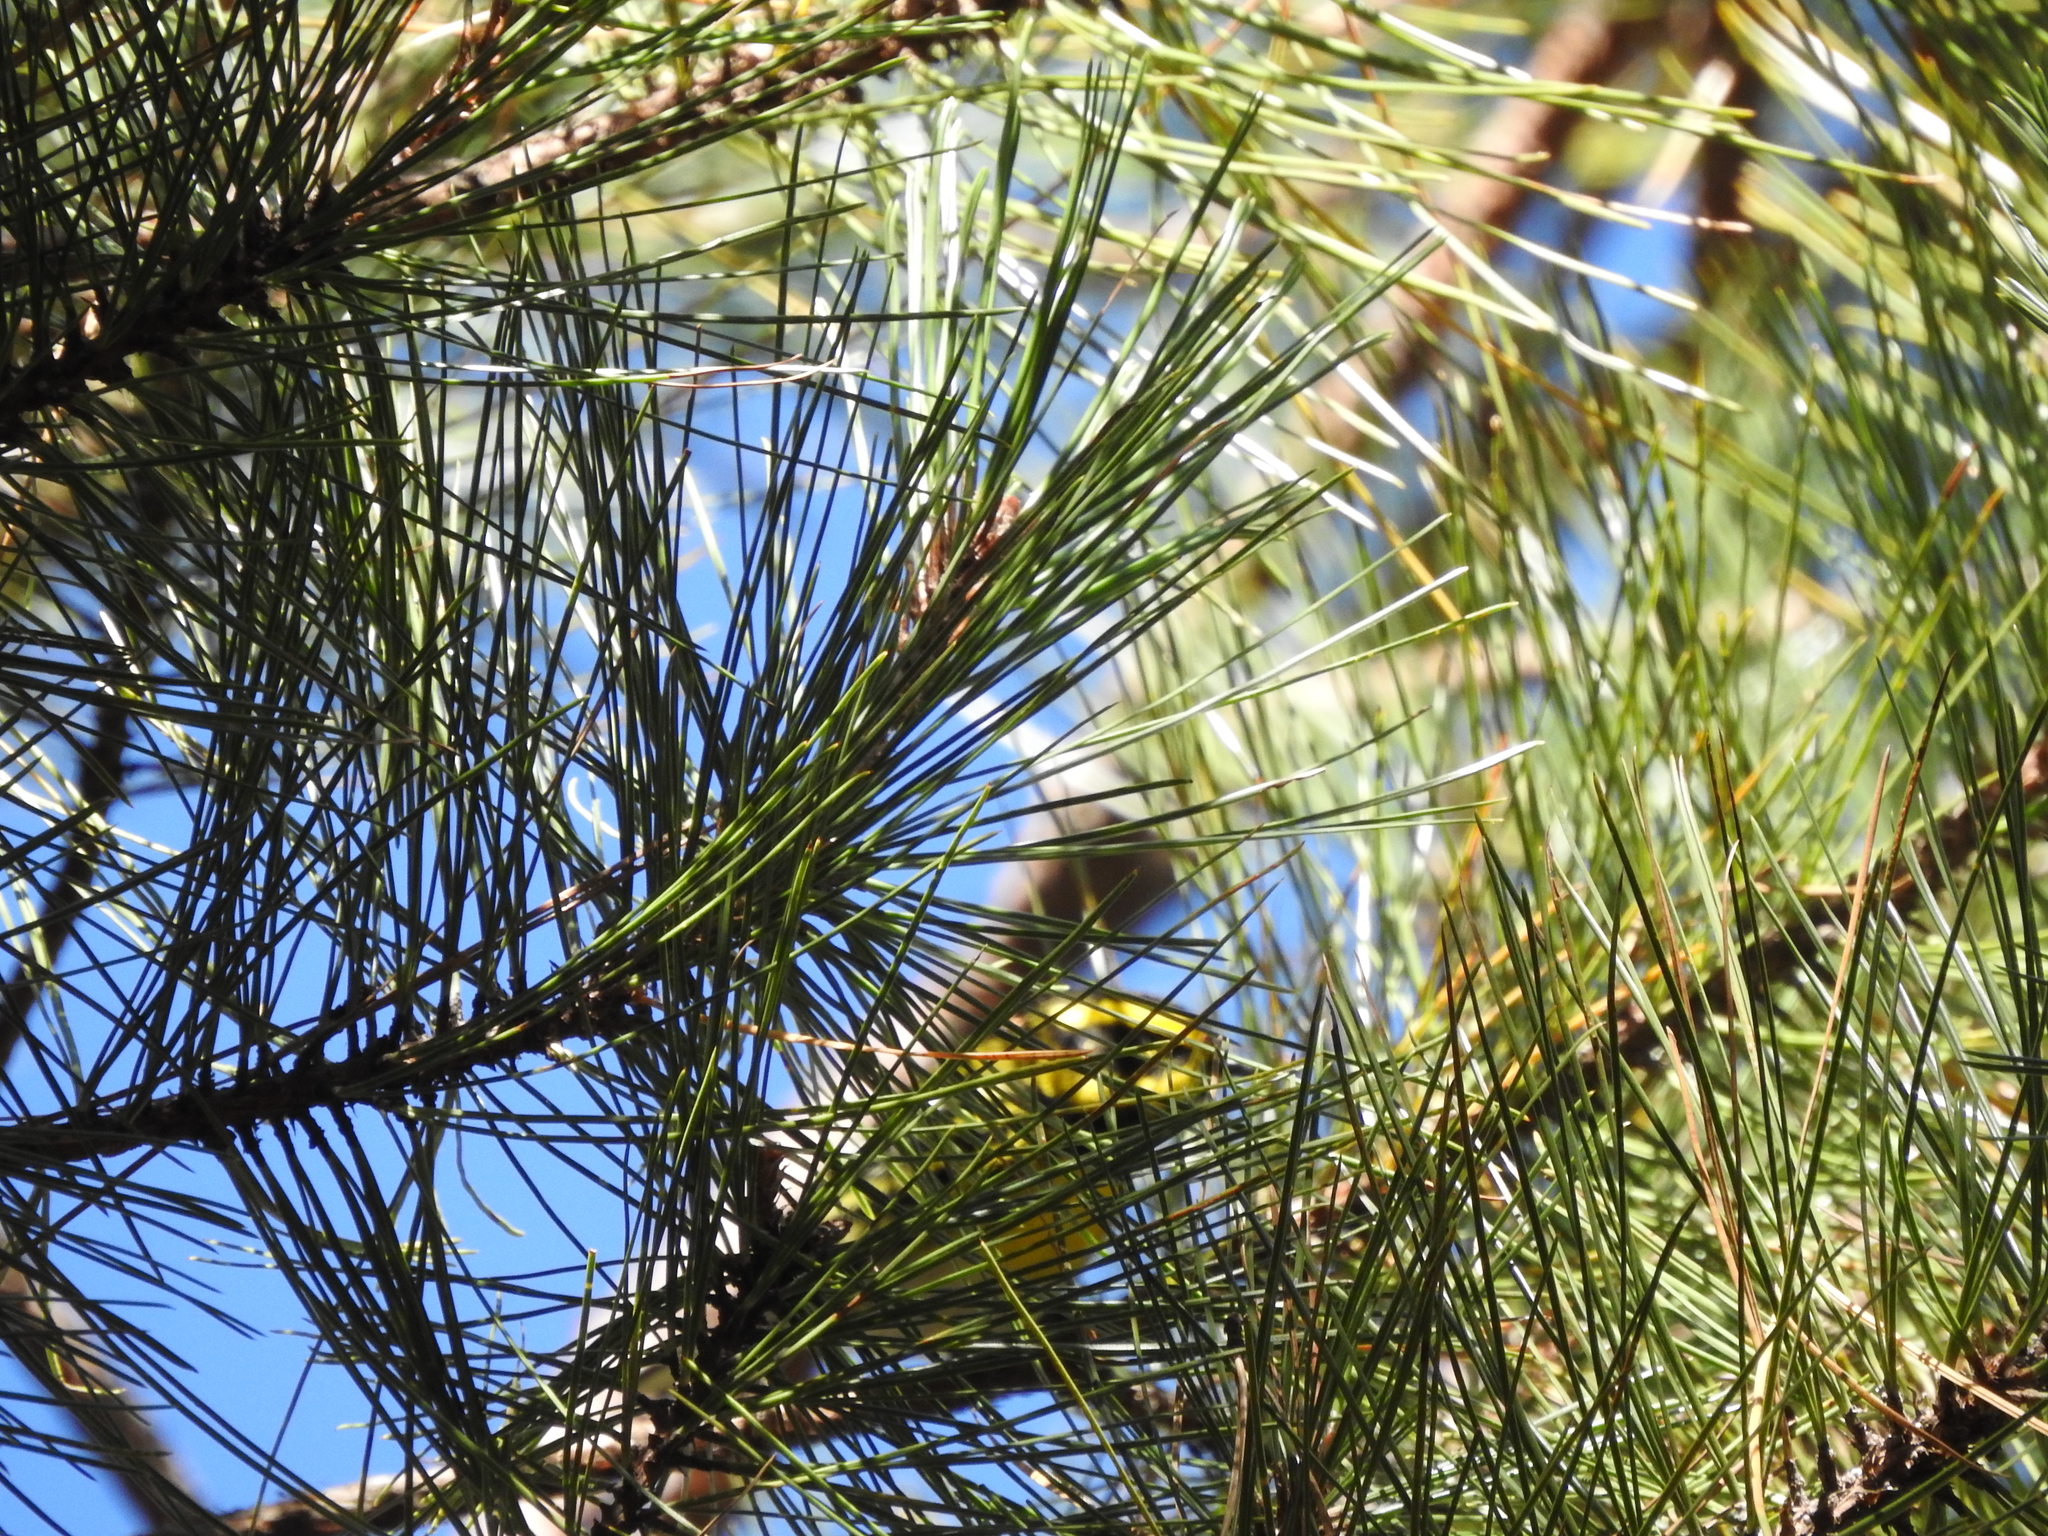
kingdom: Animalia
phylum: Chordata
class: Aves
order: Passeriformes
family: Parulidae
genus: Setophaga
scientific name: Setophaga townsendi
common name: Townsend's warbler
